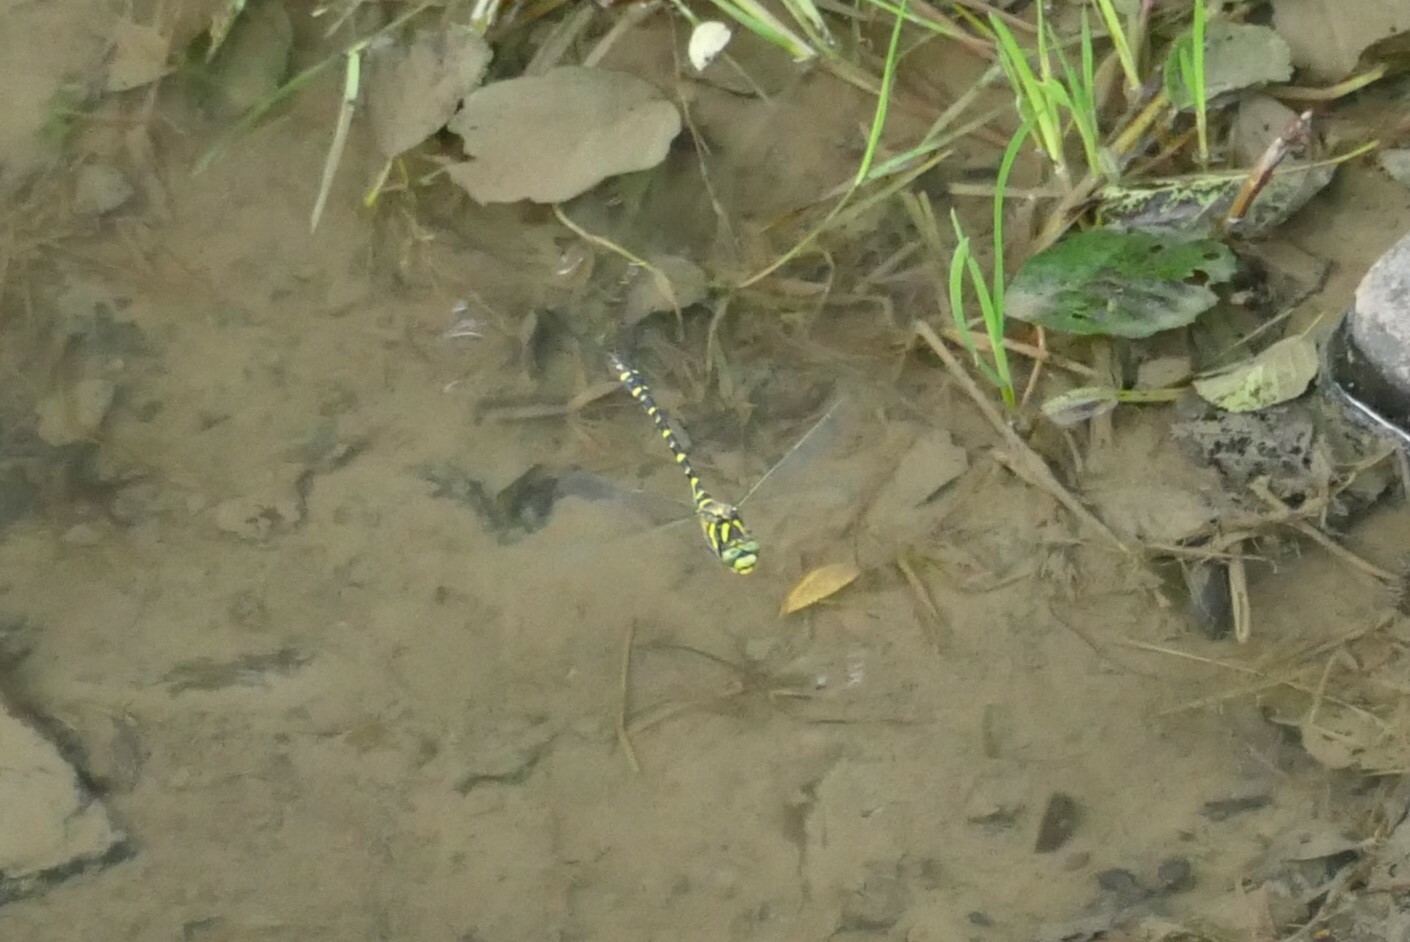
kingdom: Animalia
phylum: Arthropoda
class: Insecta
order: Odonata
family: Cordulegastridae
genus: Cordulegaster
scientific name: Cordulegaster boltonii
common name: Golden-ringed dragonfly
